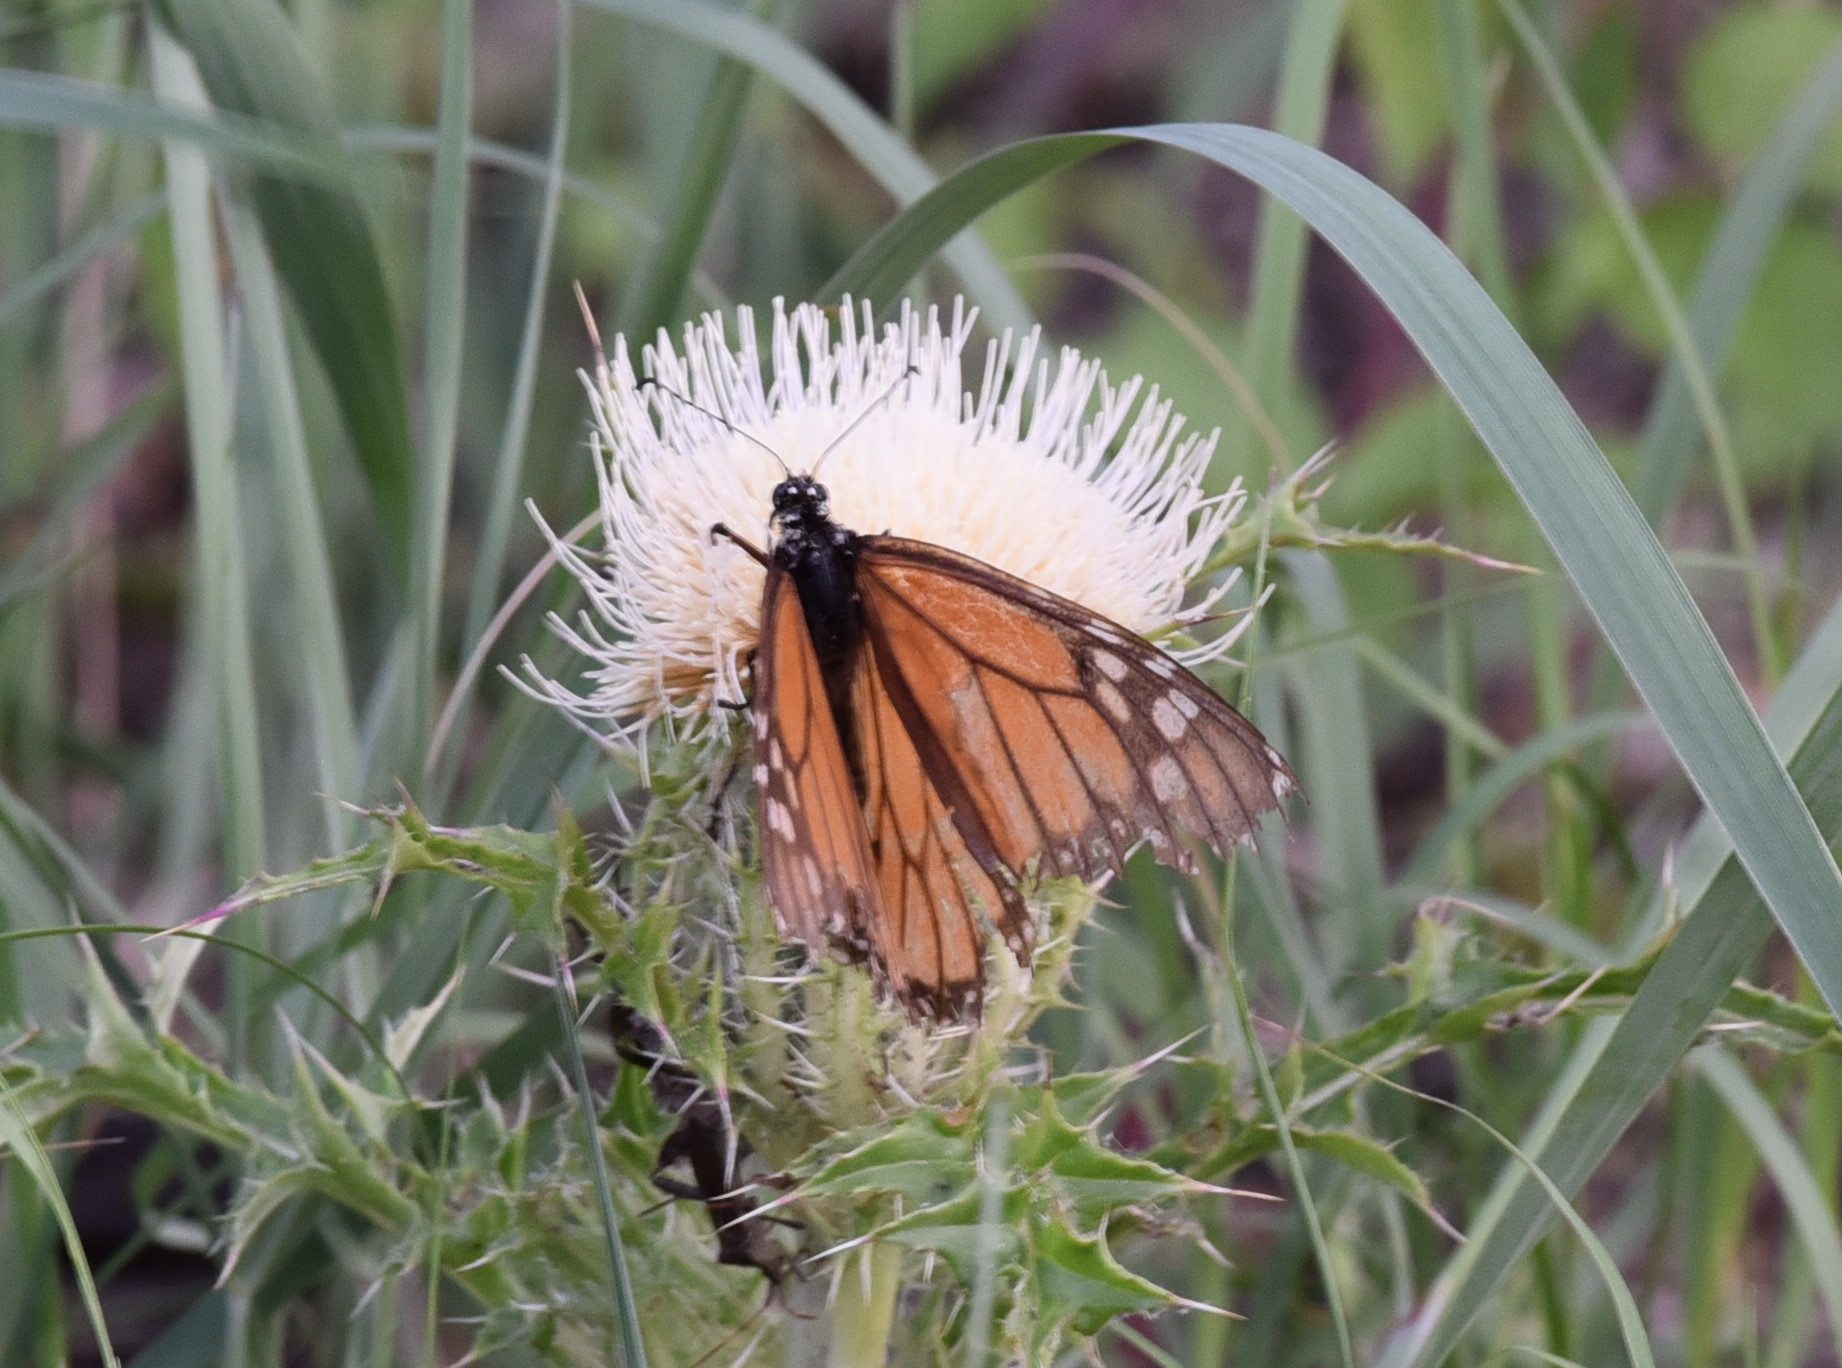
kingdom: Animalia
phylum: Arthropoda
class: Insecta
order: Lepidoptera
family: Nymphalidae
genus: Danaus
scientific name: Danaus plexippus
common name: Monarch
